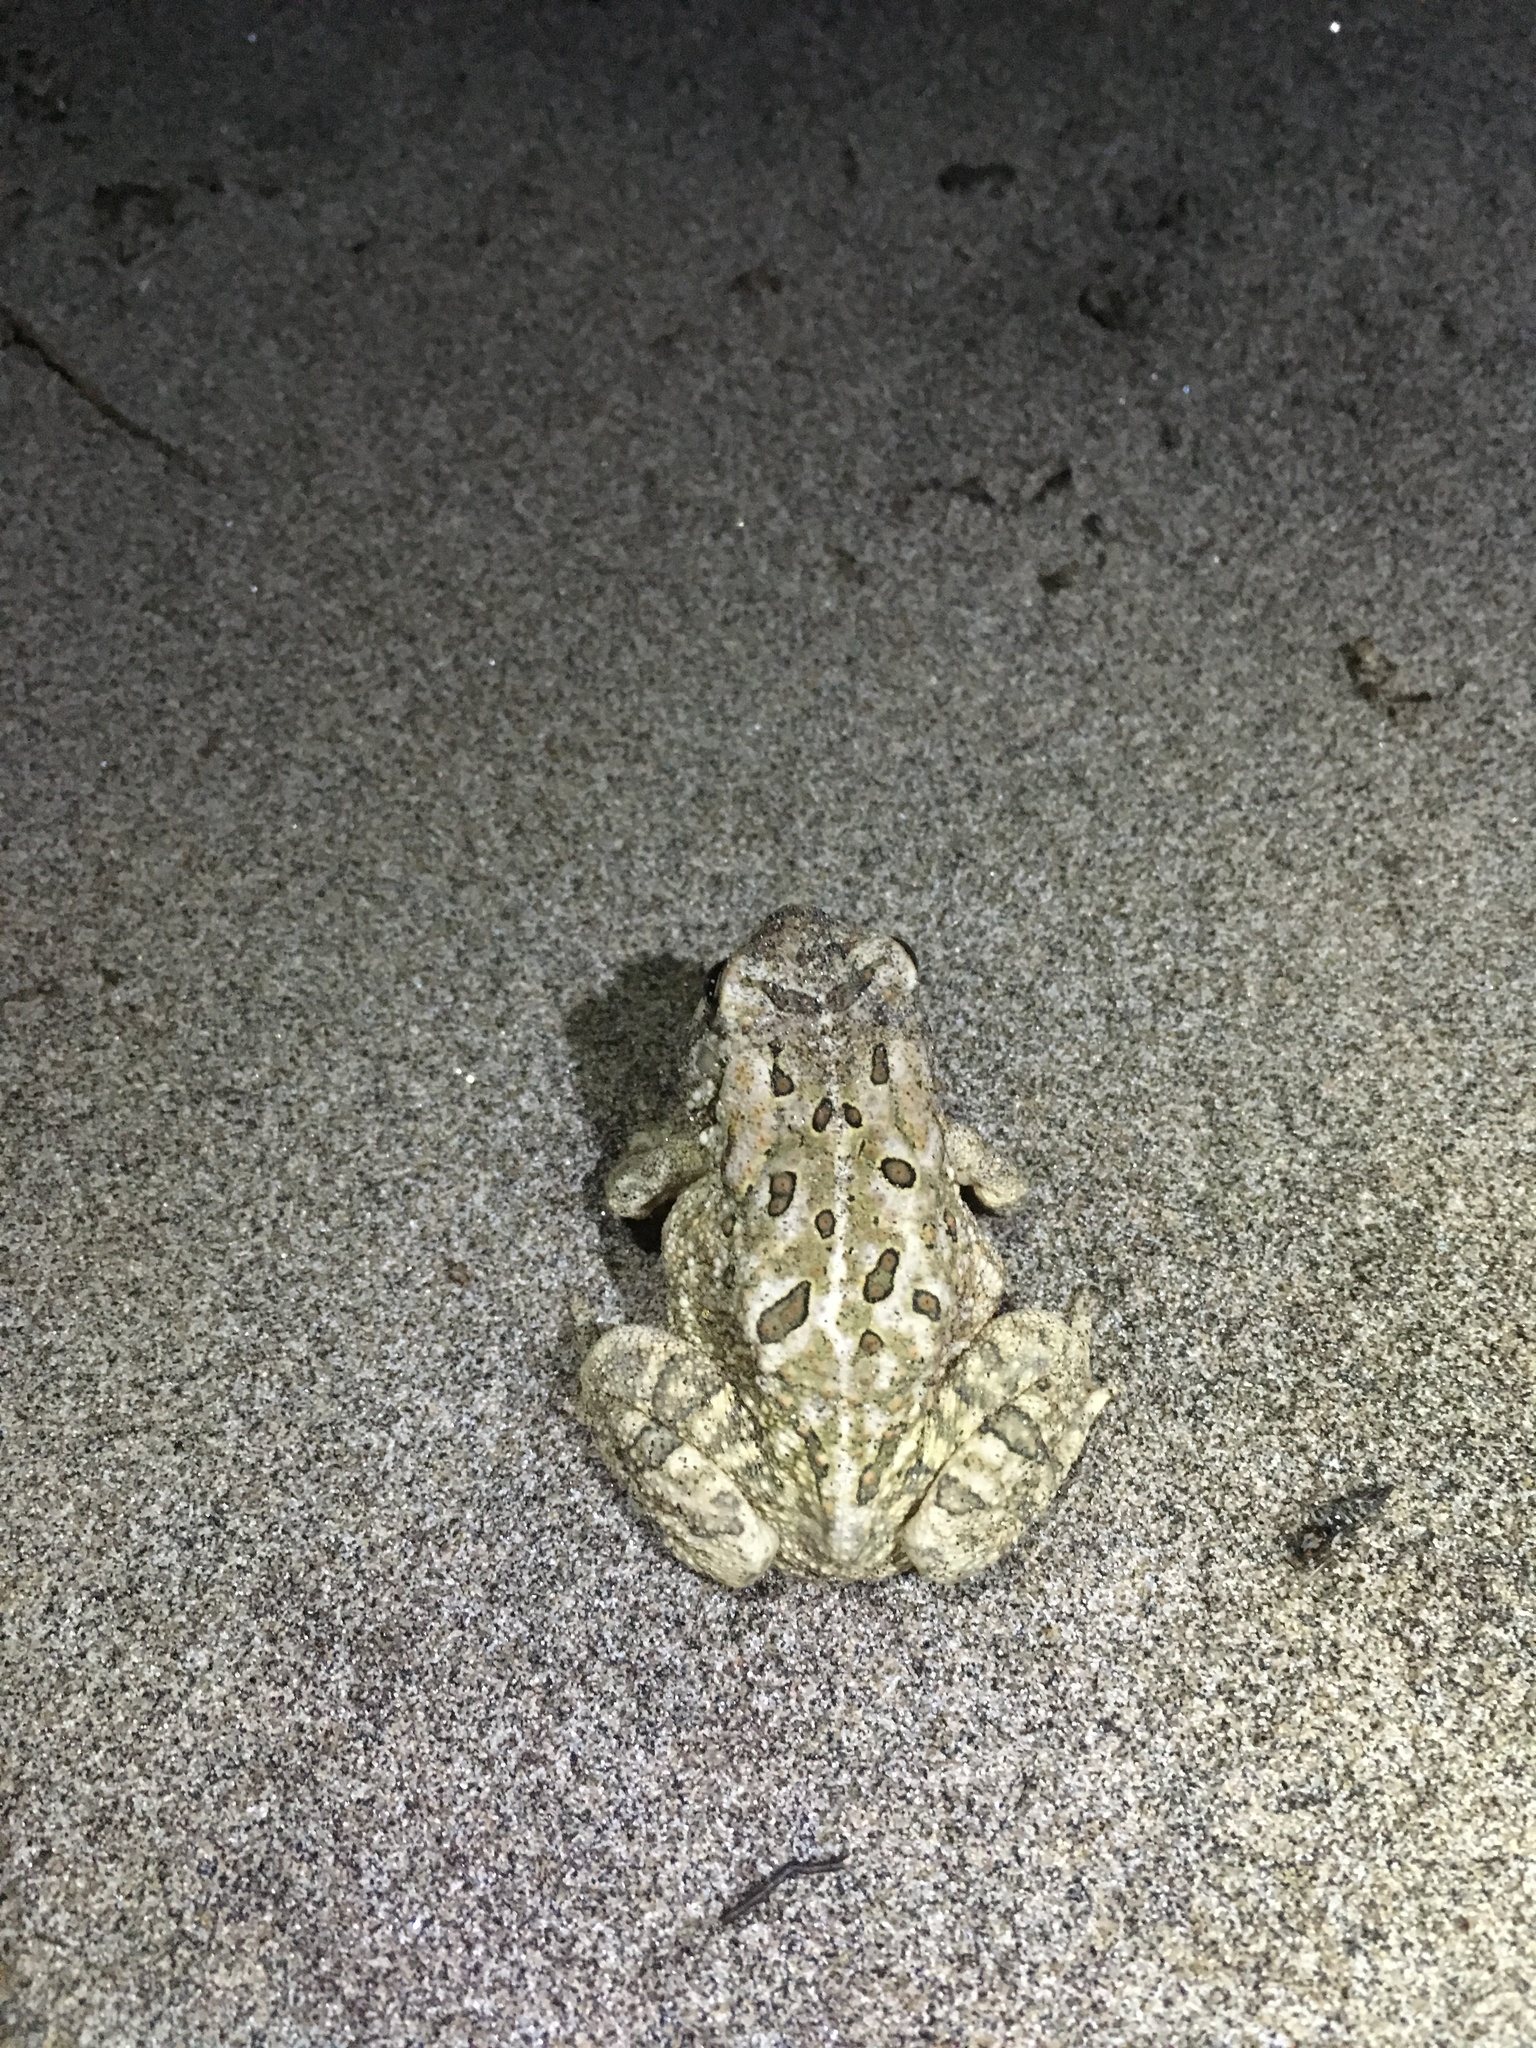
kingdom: Animalia
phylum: Chordata
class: Amphibia
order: Anura
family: Bufonidae
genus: Anaxyrus
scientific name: Anaxyrus fowleri
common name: Fowler's toad
